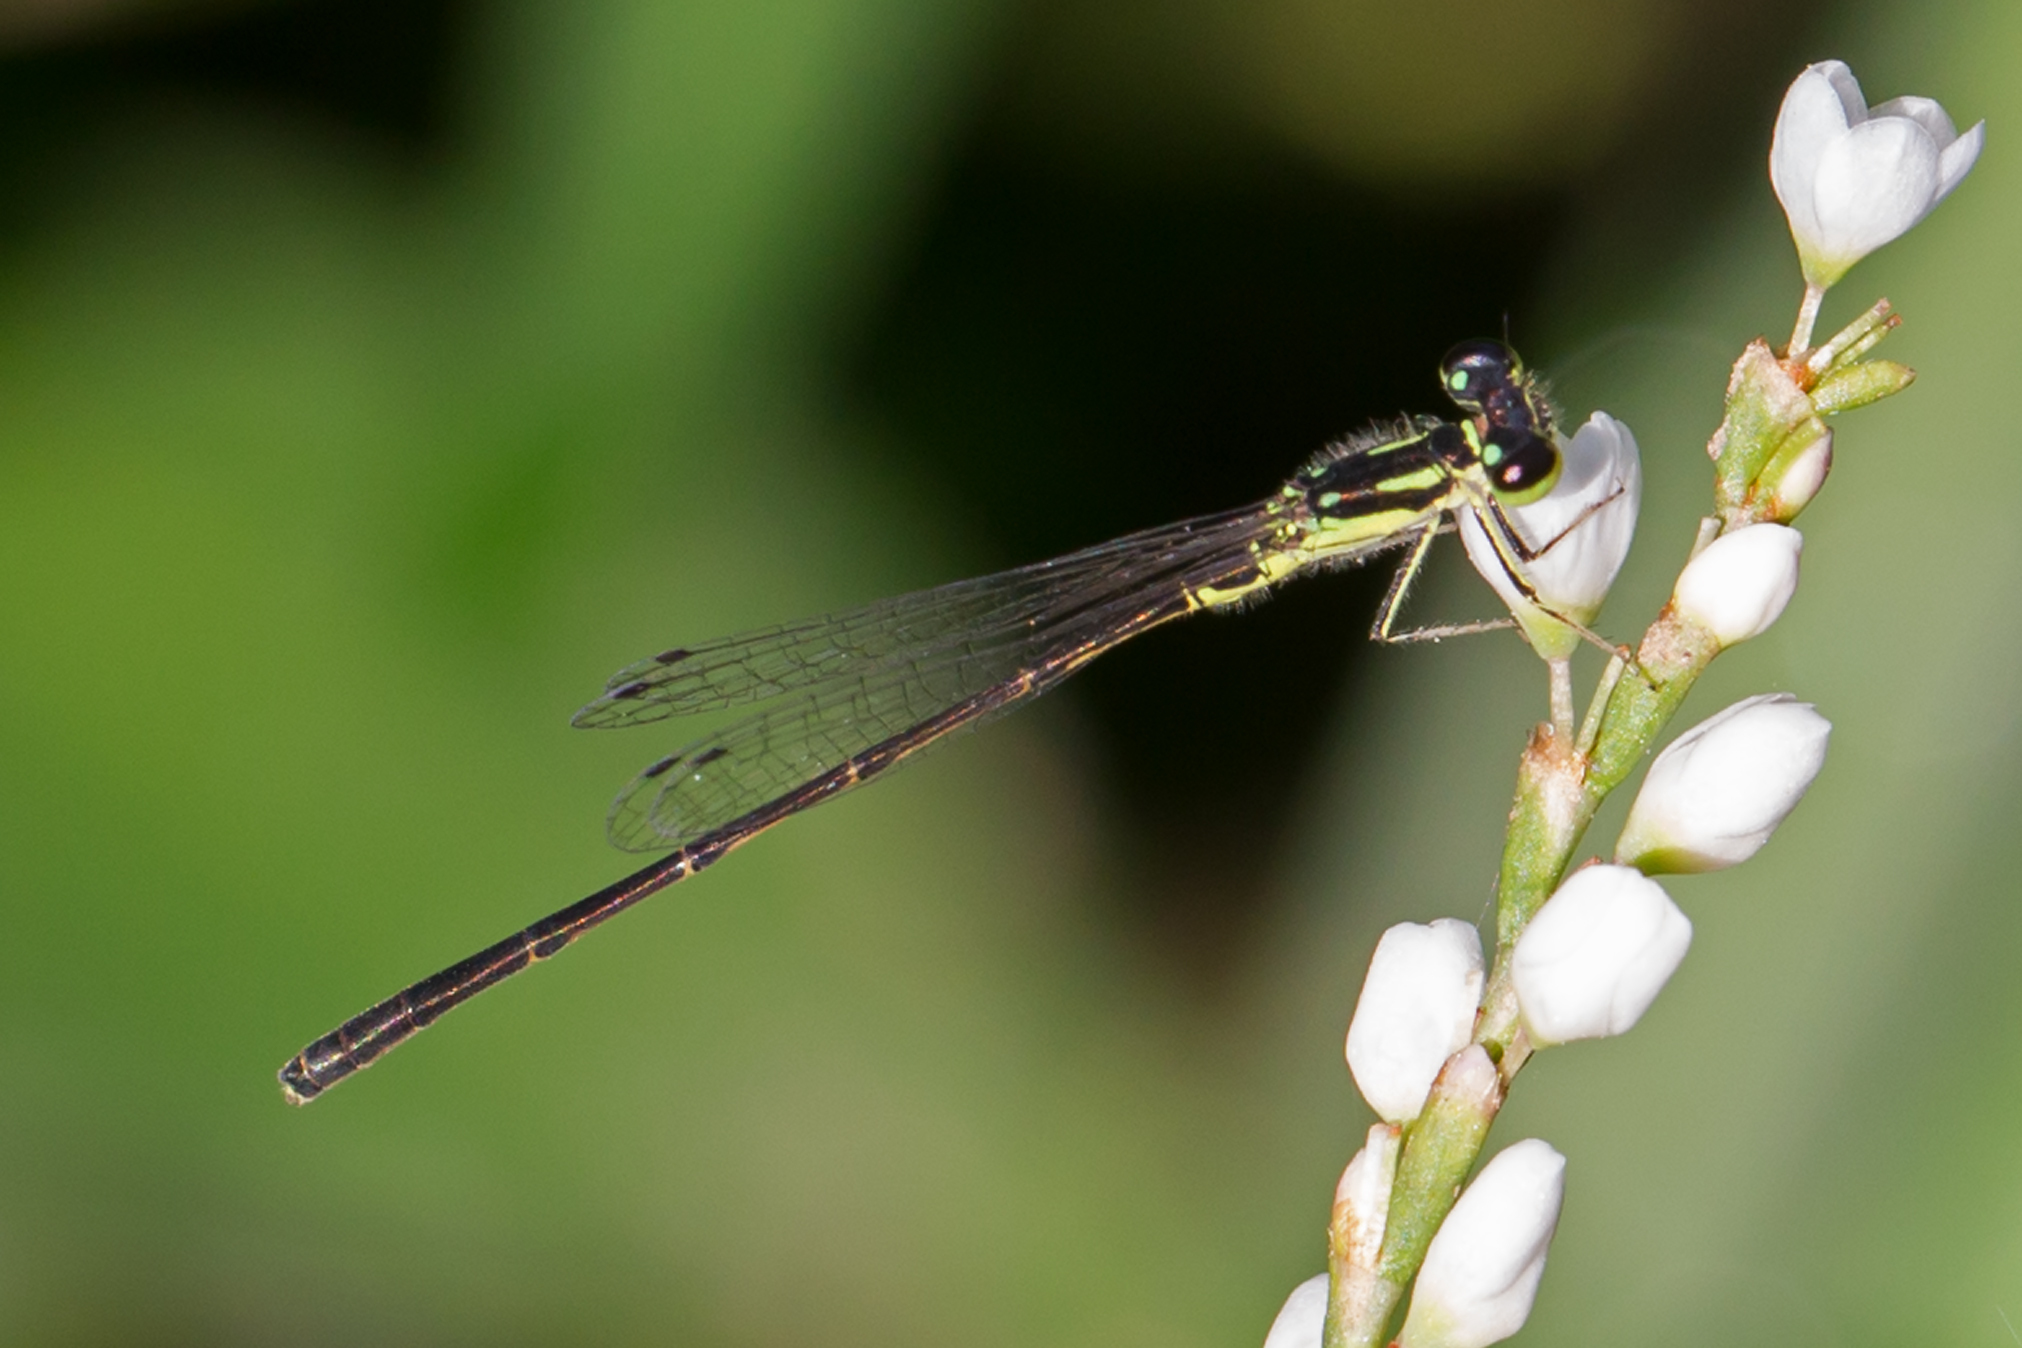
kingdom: Animalia
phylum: Arthropoda
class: Insecta
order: Odonata
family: Coenagrionidae
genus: Ischnura
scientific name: Ischnura posita
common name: Fragile forktail
